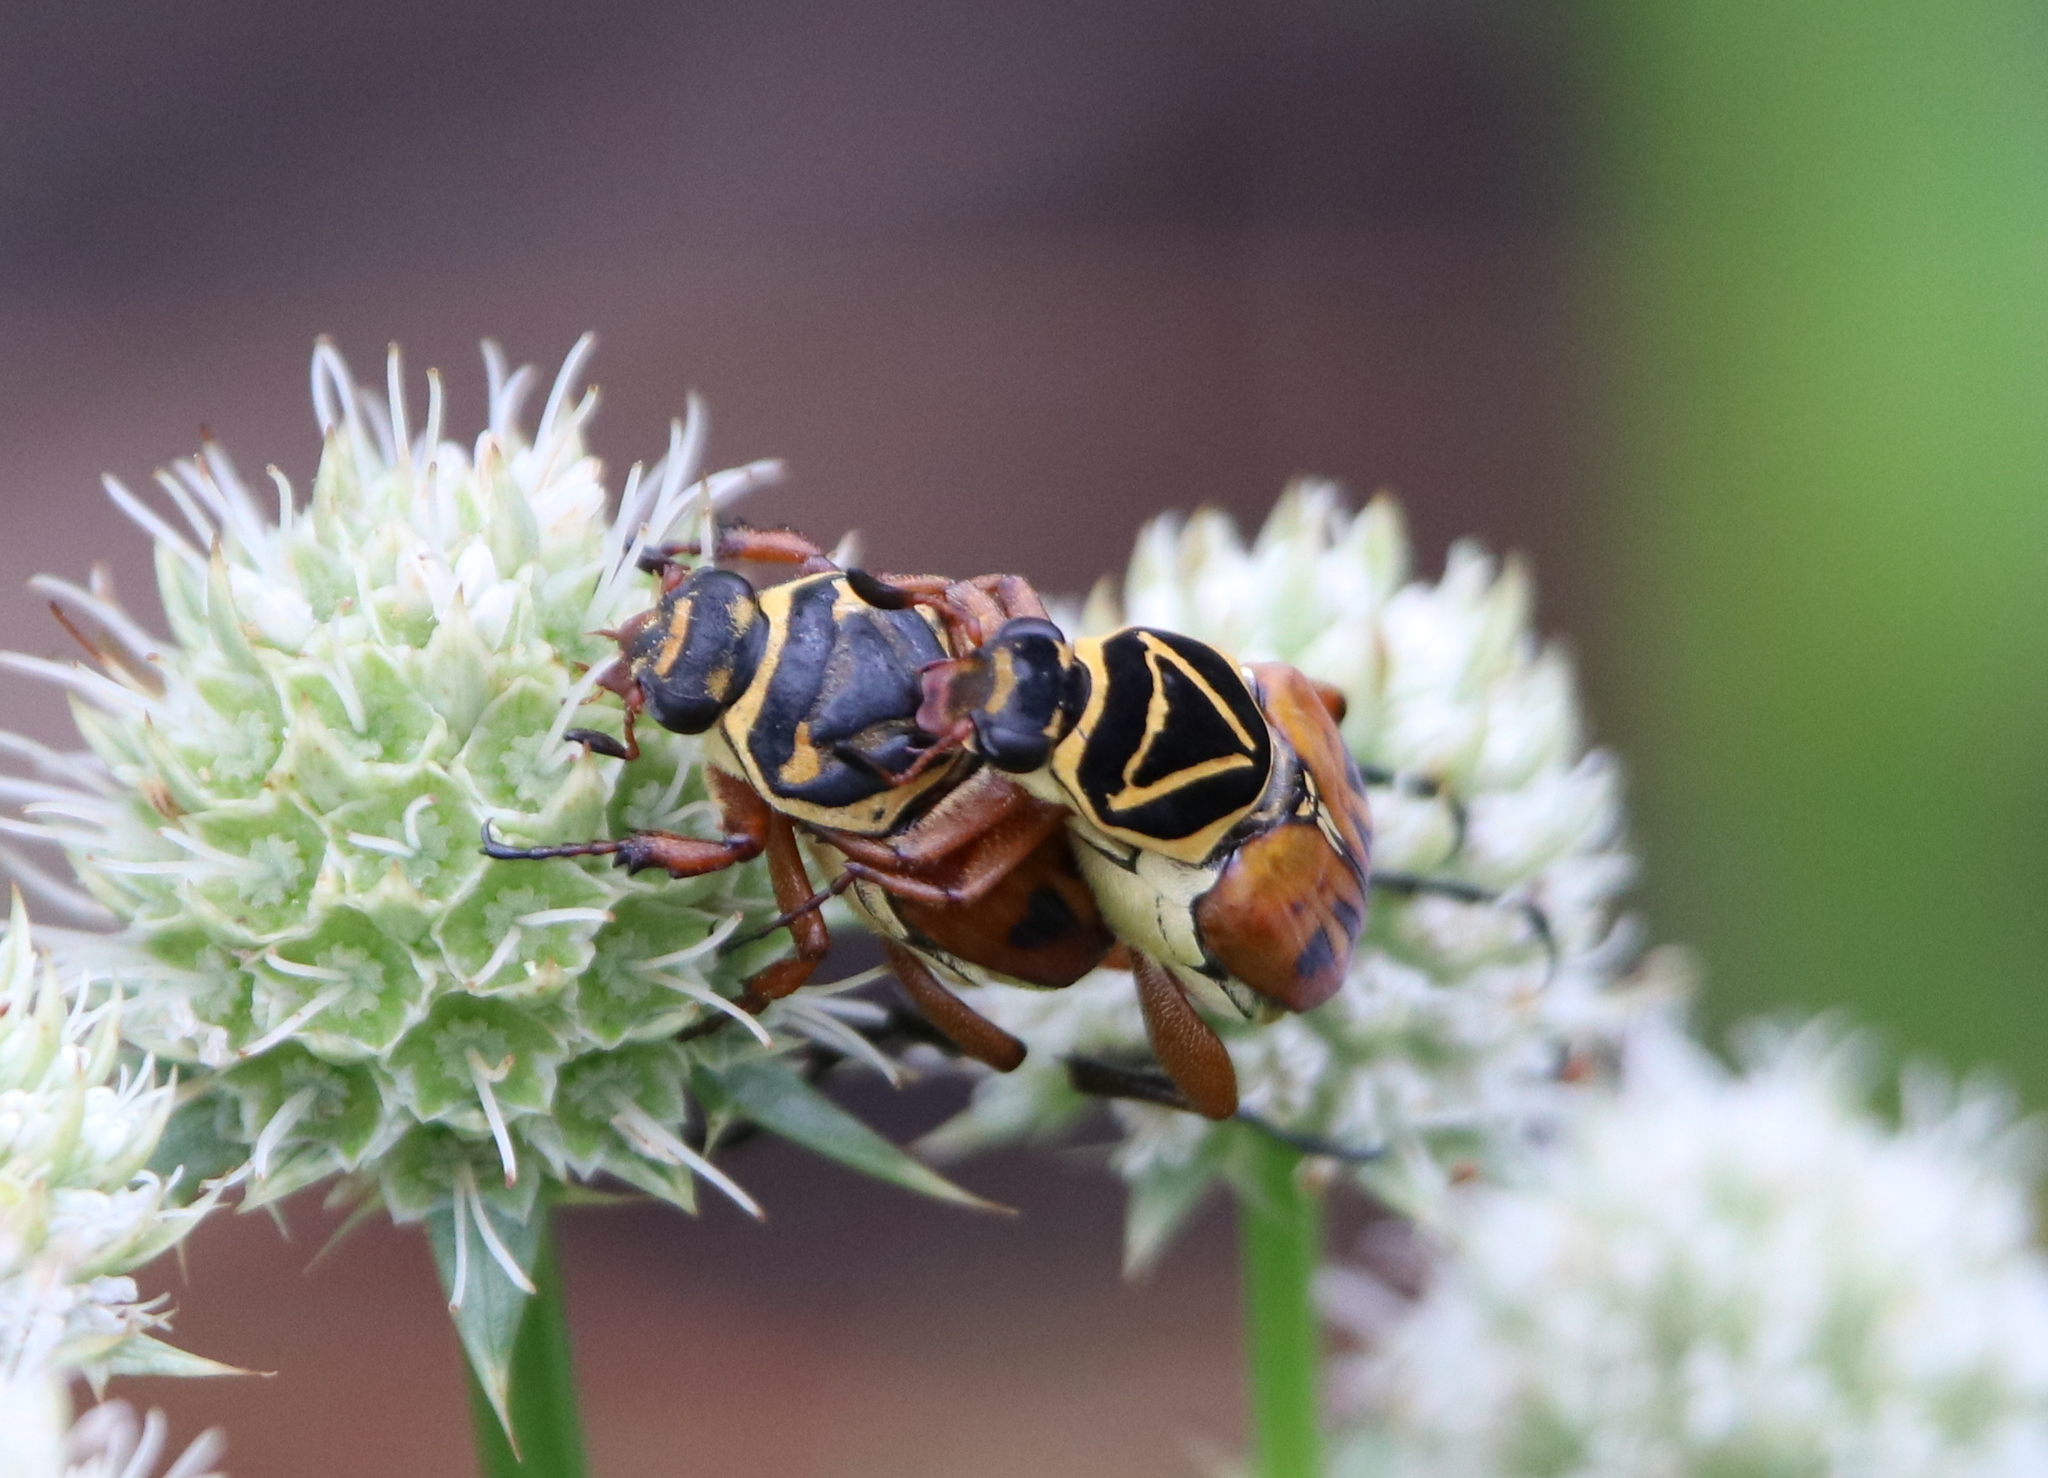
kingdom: Animalia
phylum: Arthropoda
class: Insecta
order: Coleoptera
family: Scarabaeidae
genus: Trigonopeltastes
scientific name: Trigonopeltastes delta
